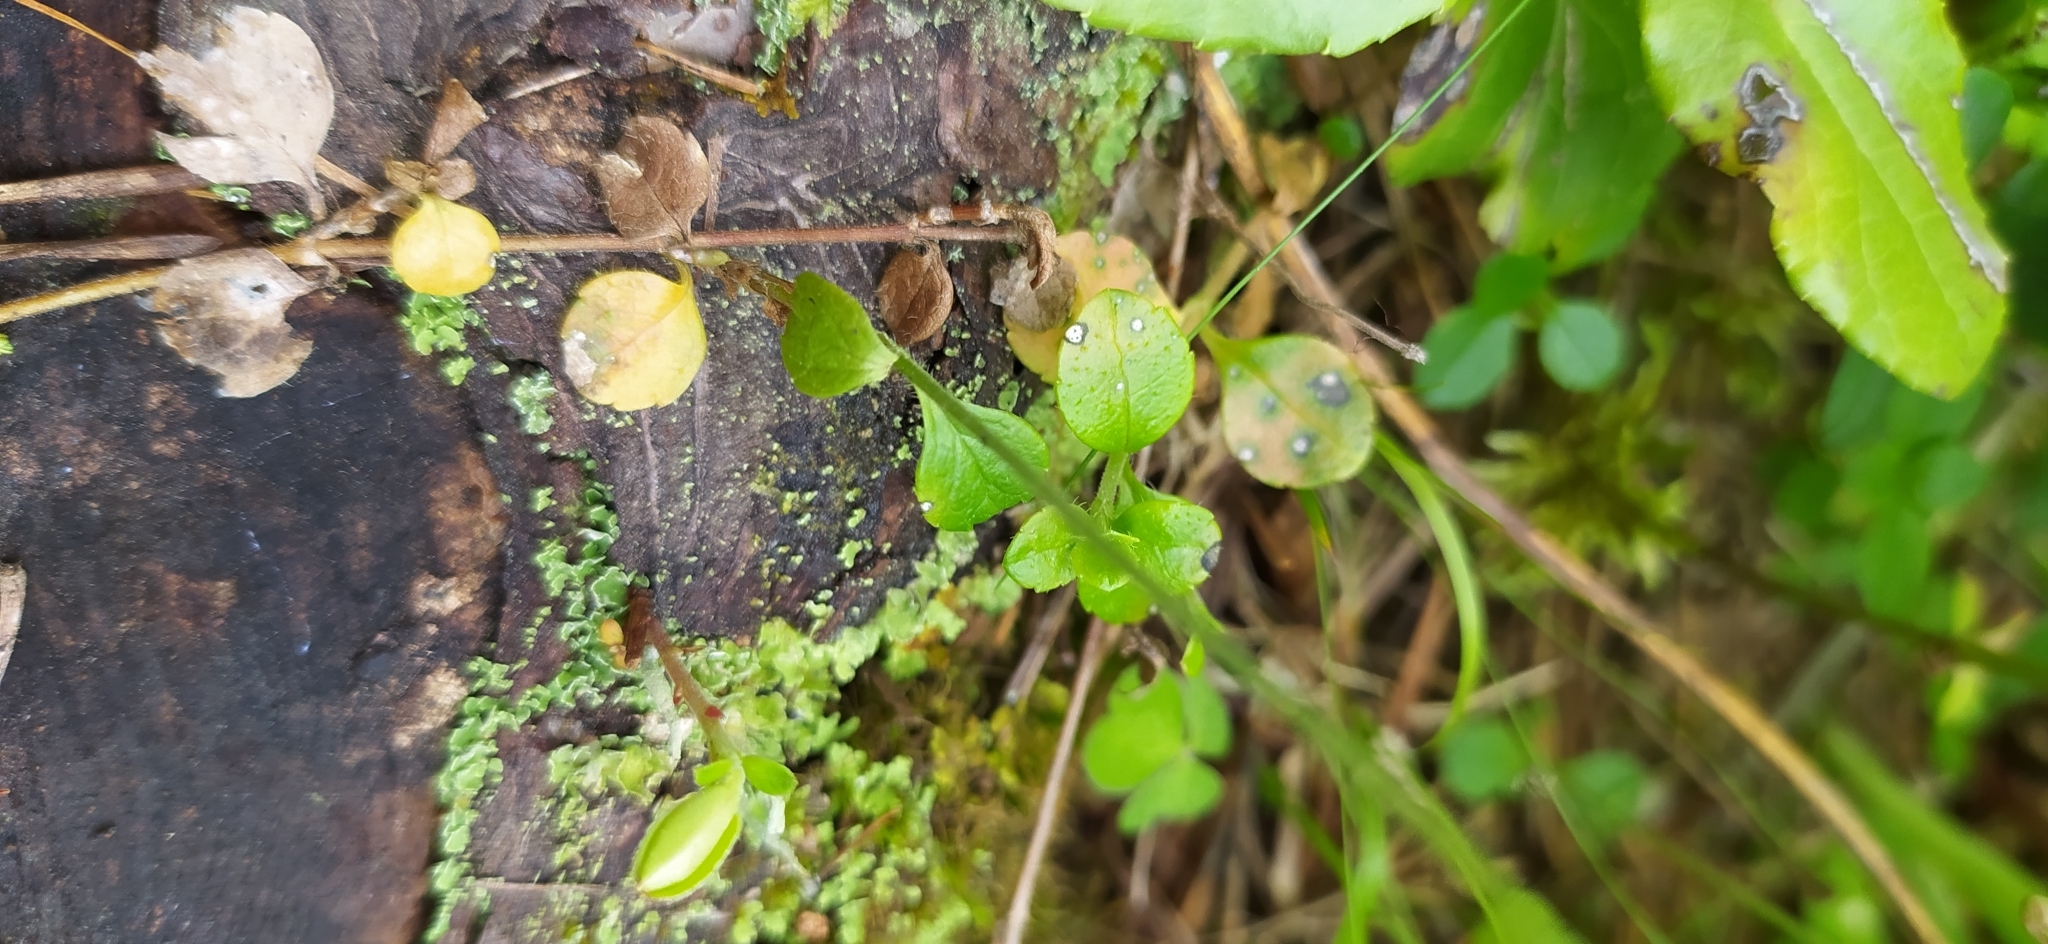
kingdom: Plantae
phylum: Tracheophyta
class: Magnoliopsida
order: Dipsacales
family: Caprifoliaceae
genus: Linnaea
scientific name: Linnaea borealis
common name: Twinflower
